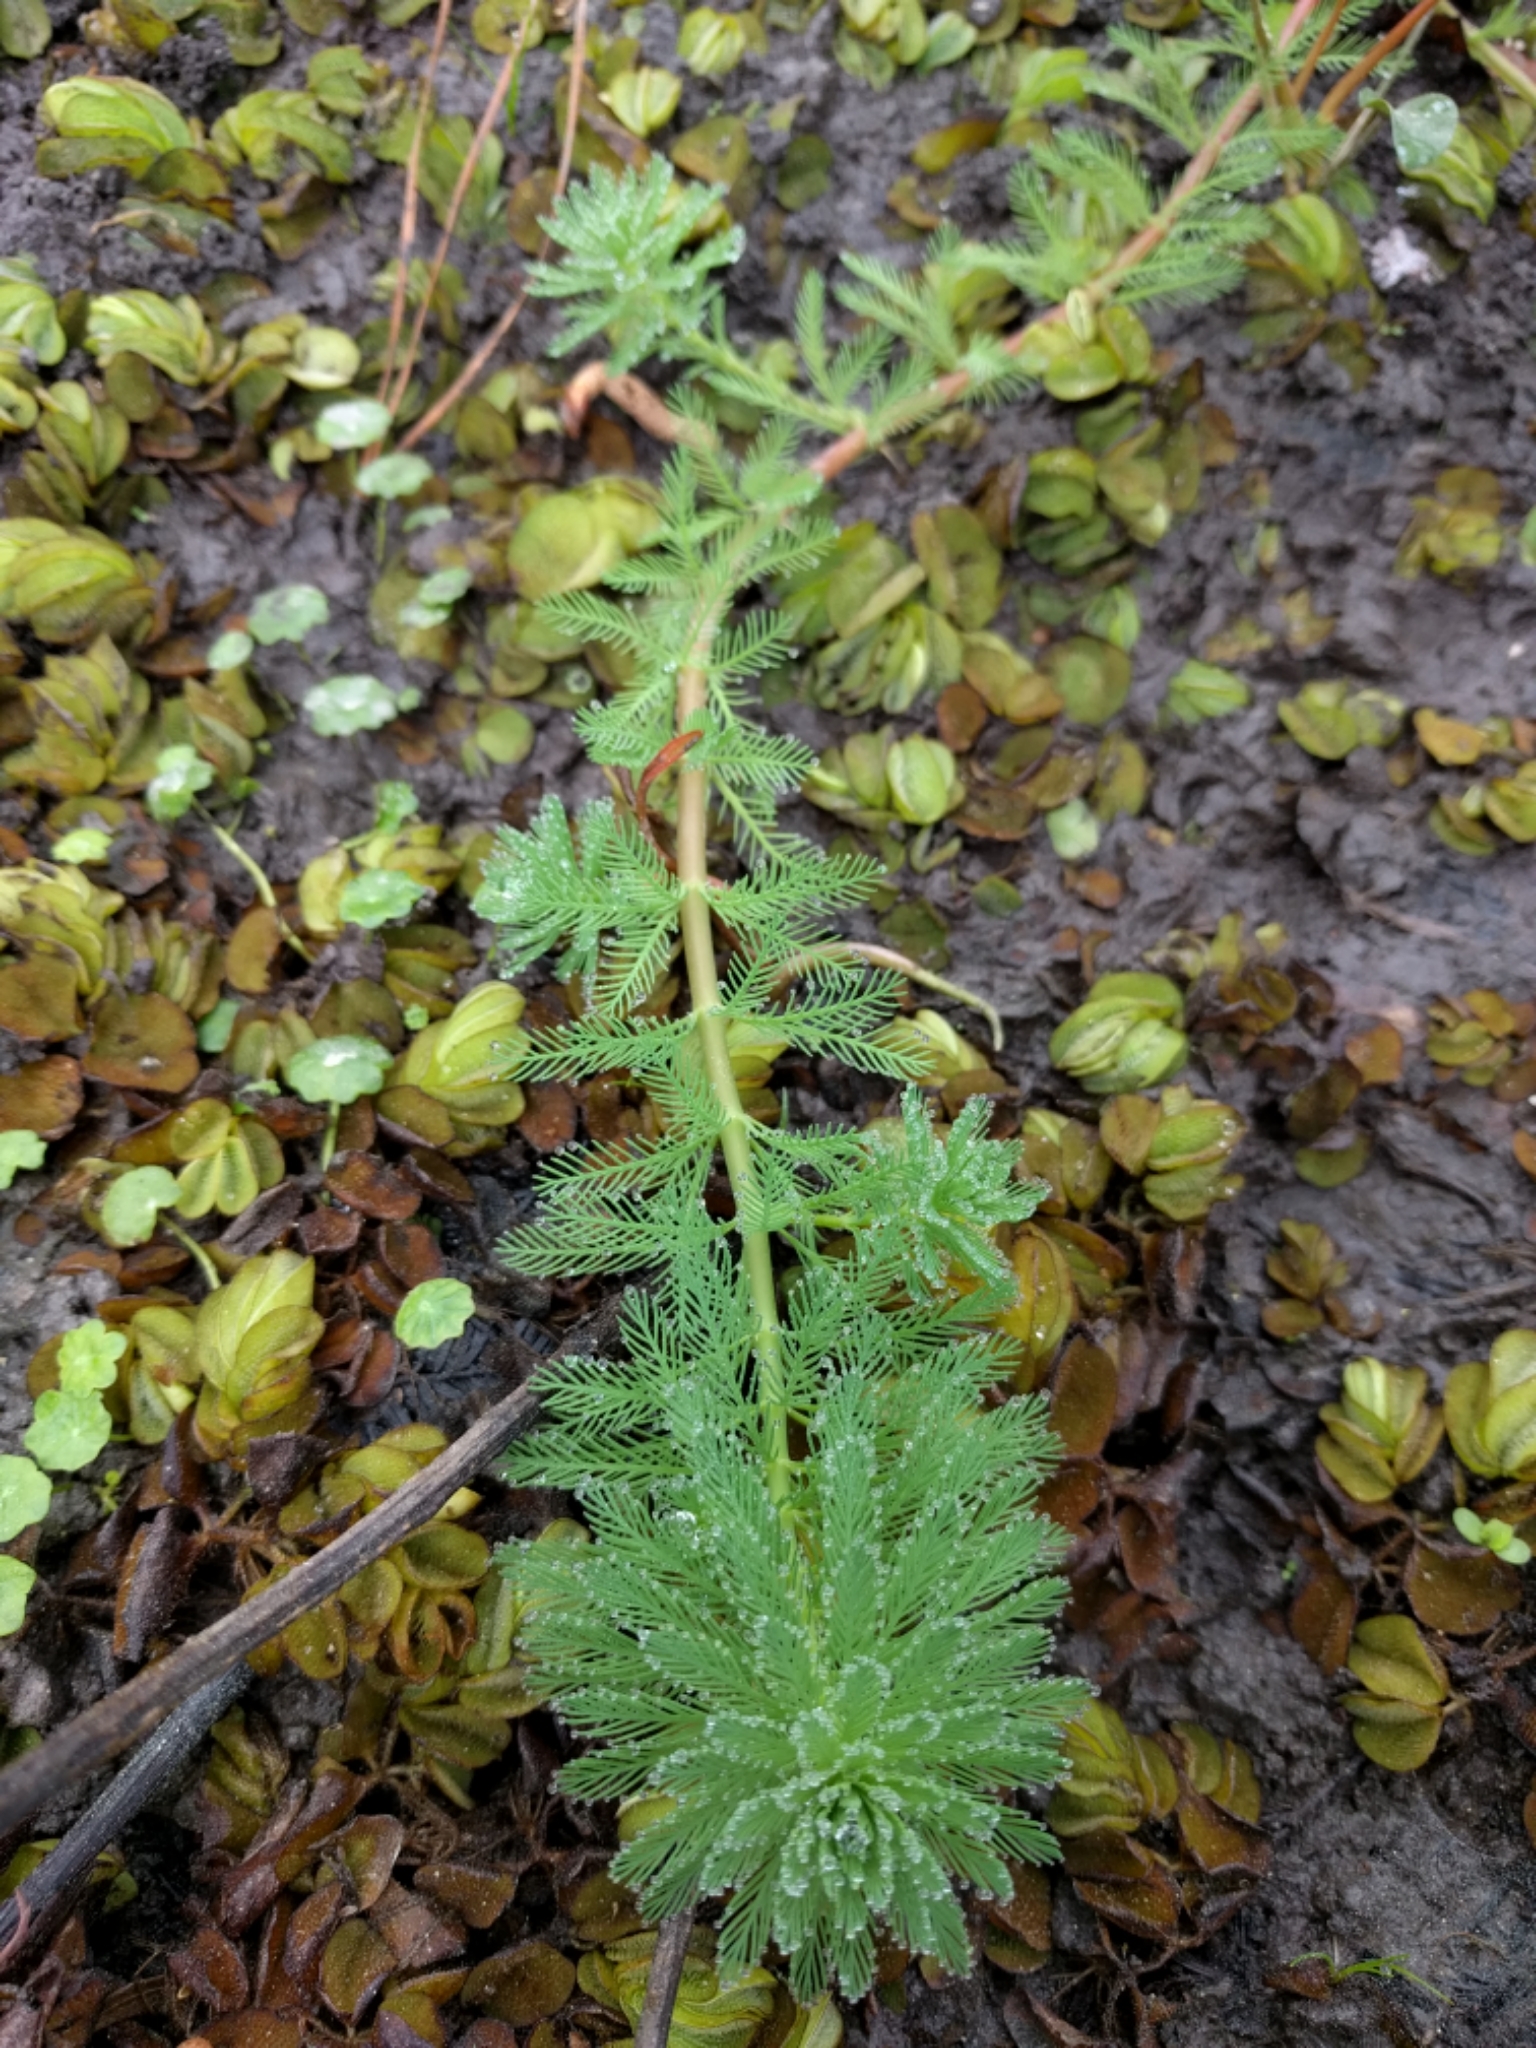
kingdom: Plantae
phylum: Tracheophyta
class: Magnoliopsida
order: Saxifragales
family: Haloragaceae
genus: Myriophyllum
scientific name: Myriophyllum aquaticum
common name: Parrot's feather
